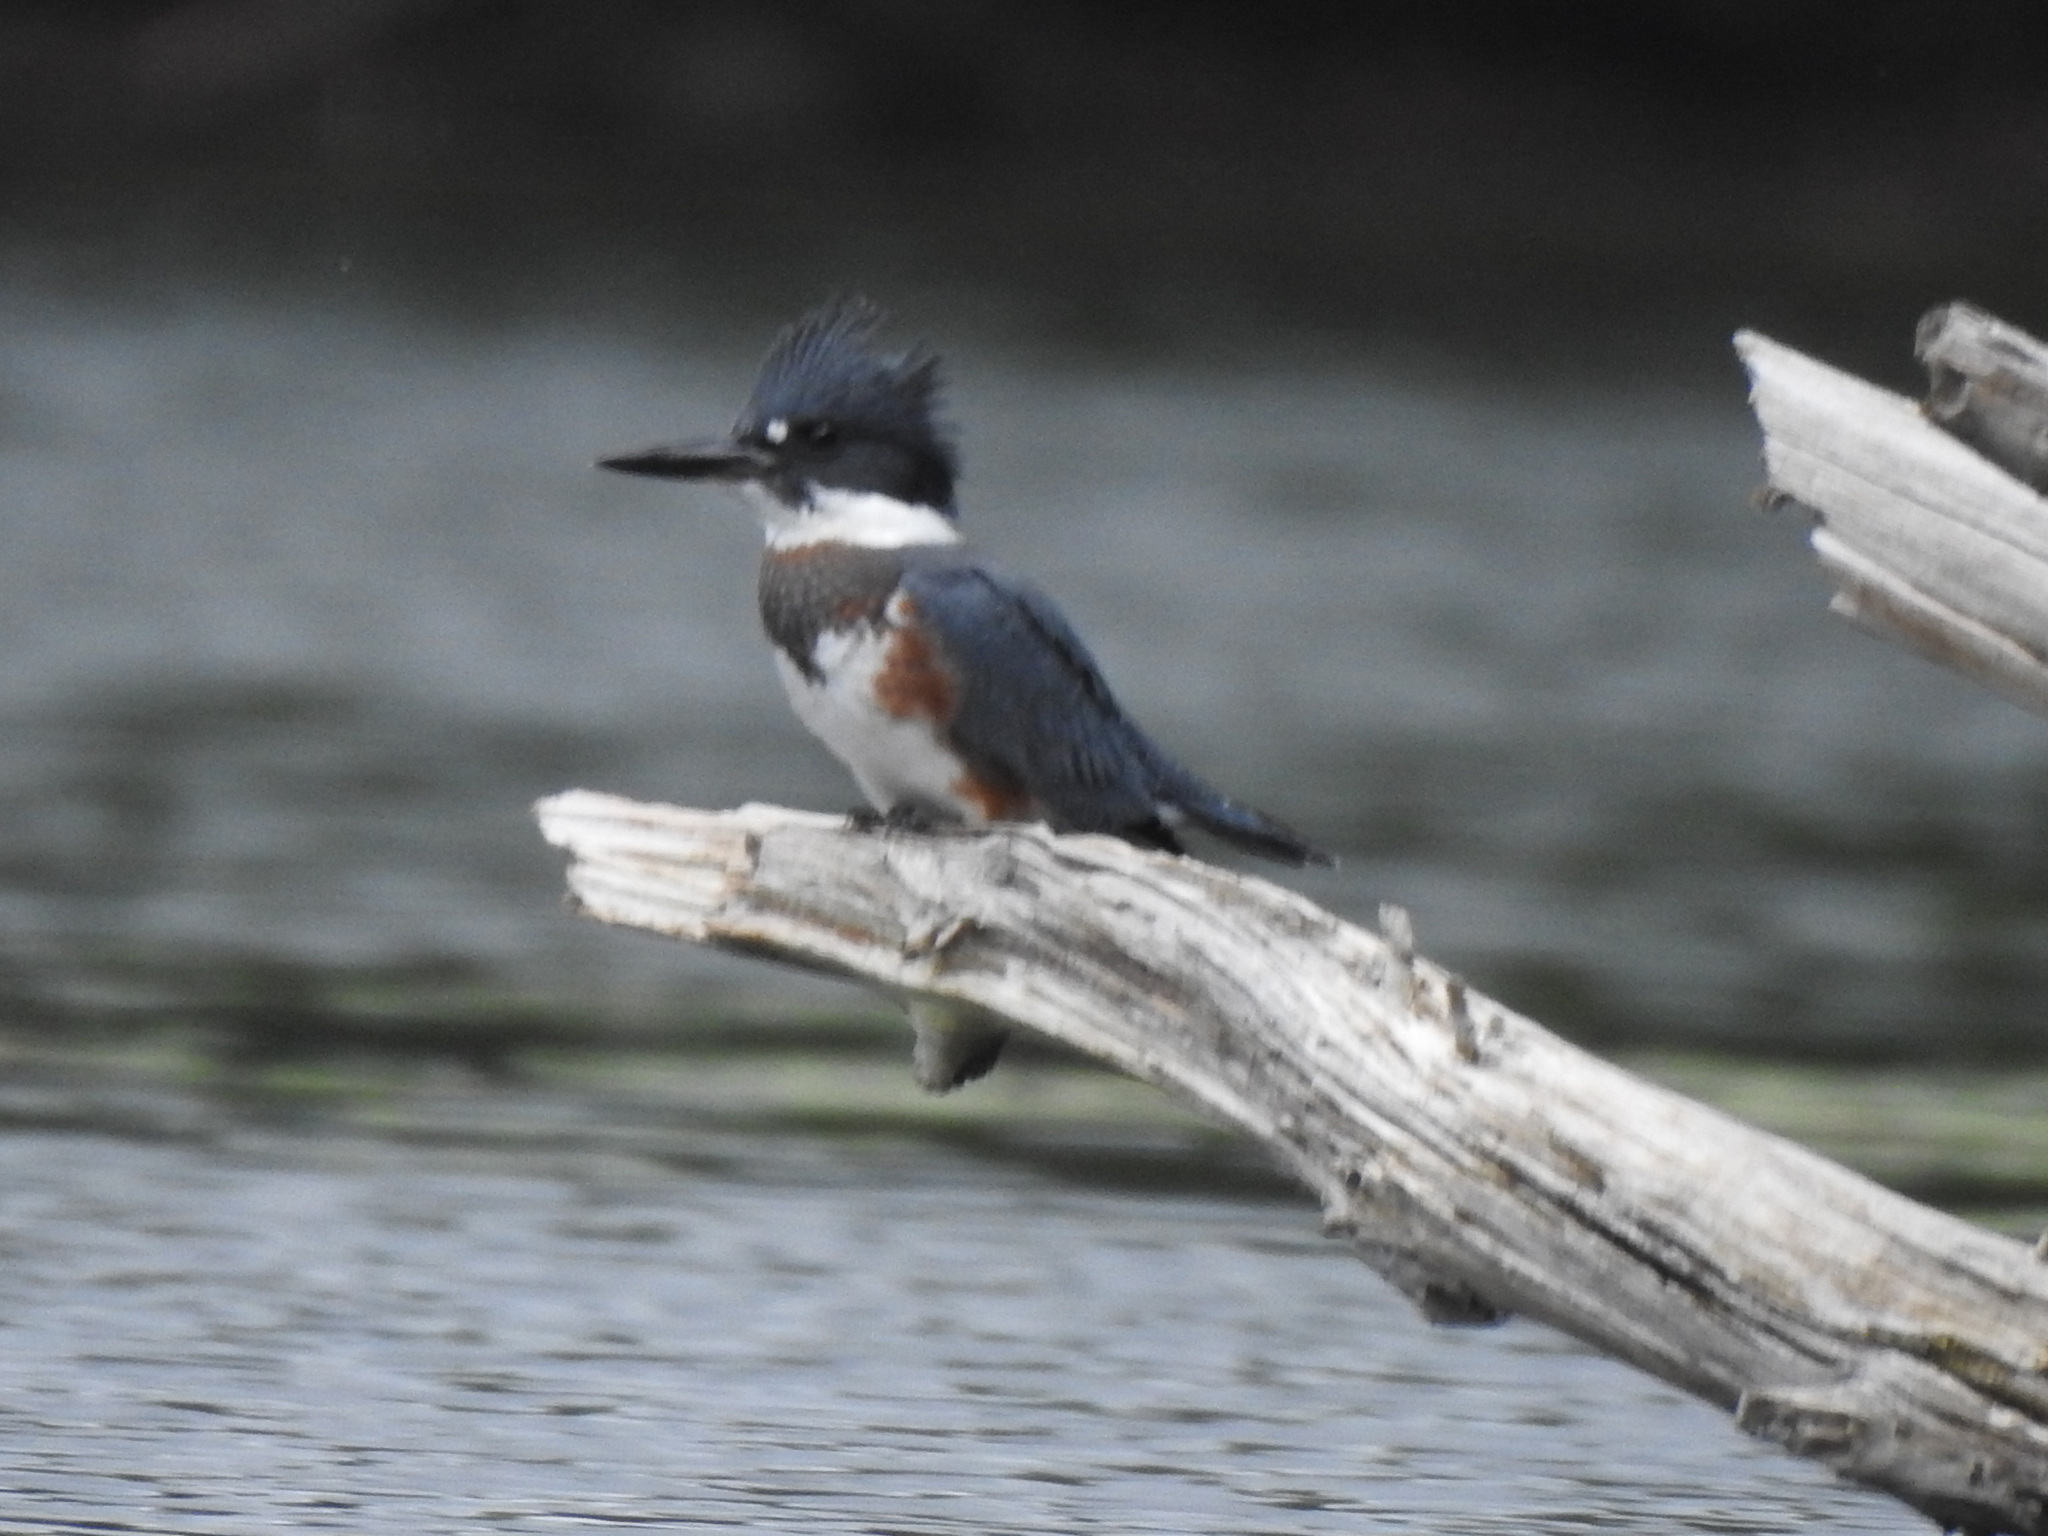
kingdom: Animalia
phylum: Chordata
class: Aves
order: Coraciiformes
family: Alcedinidae
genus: Megaceryle
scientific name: Megaceryle alcyon
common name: Belted kingfisher
